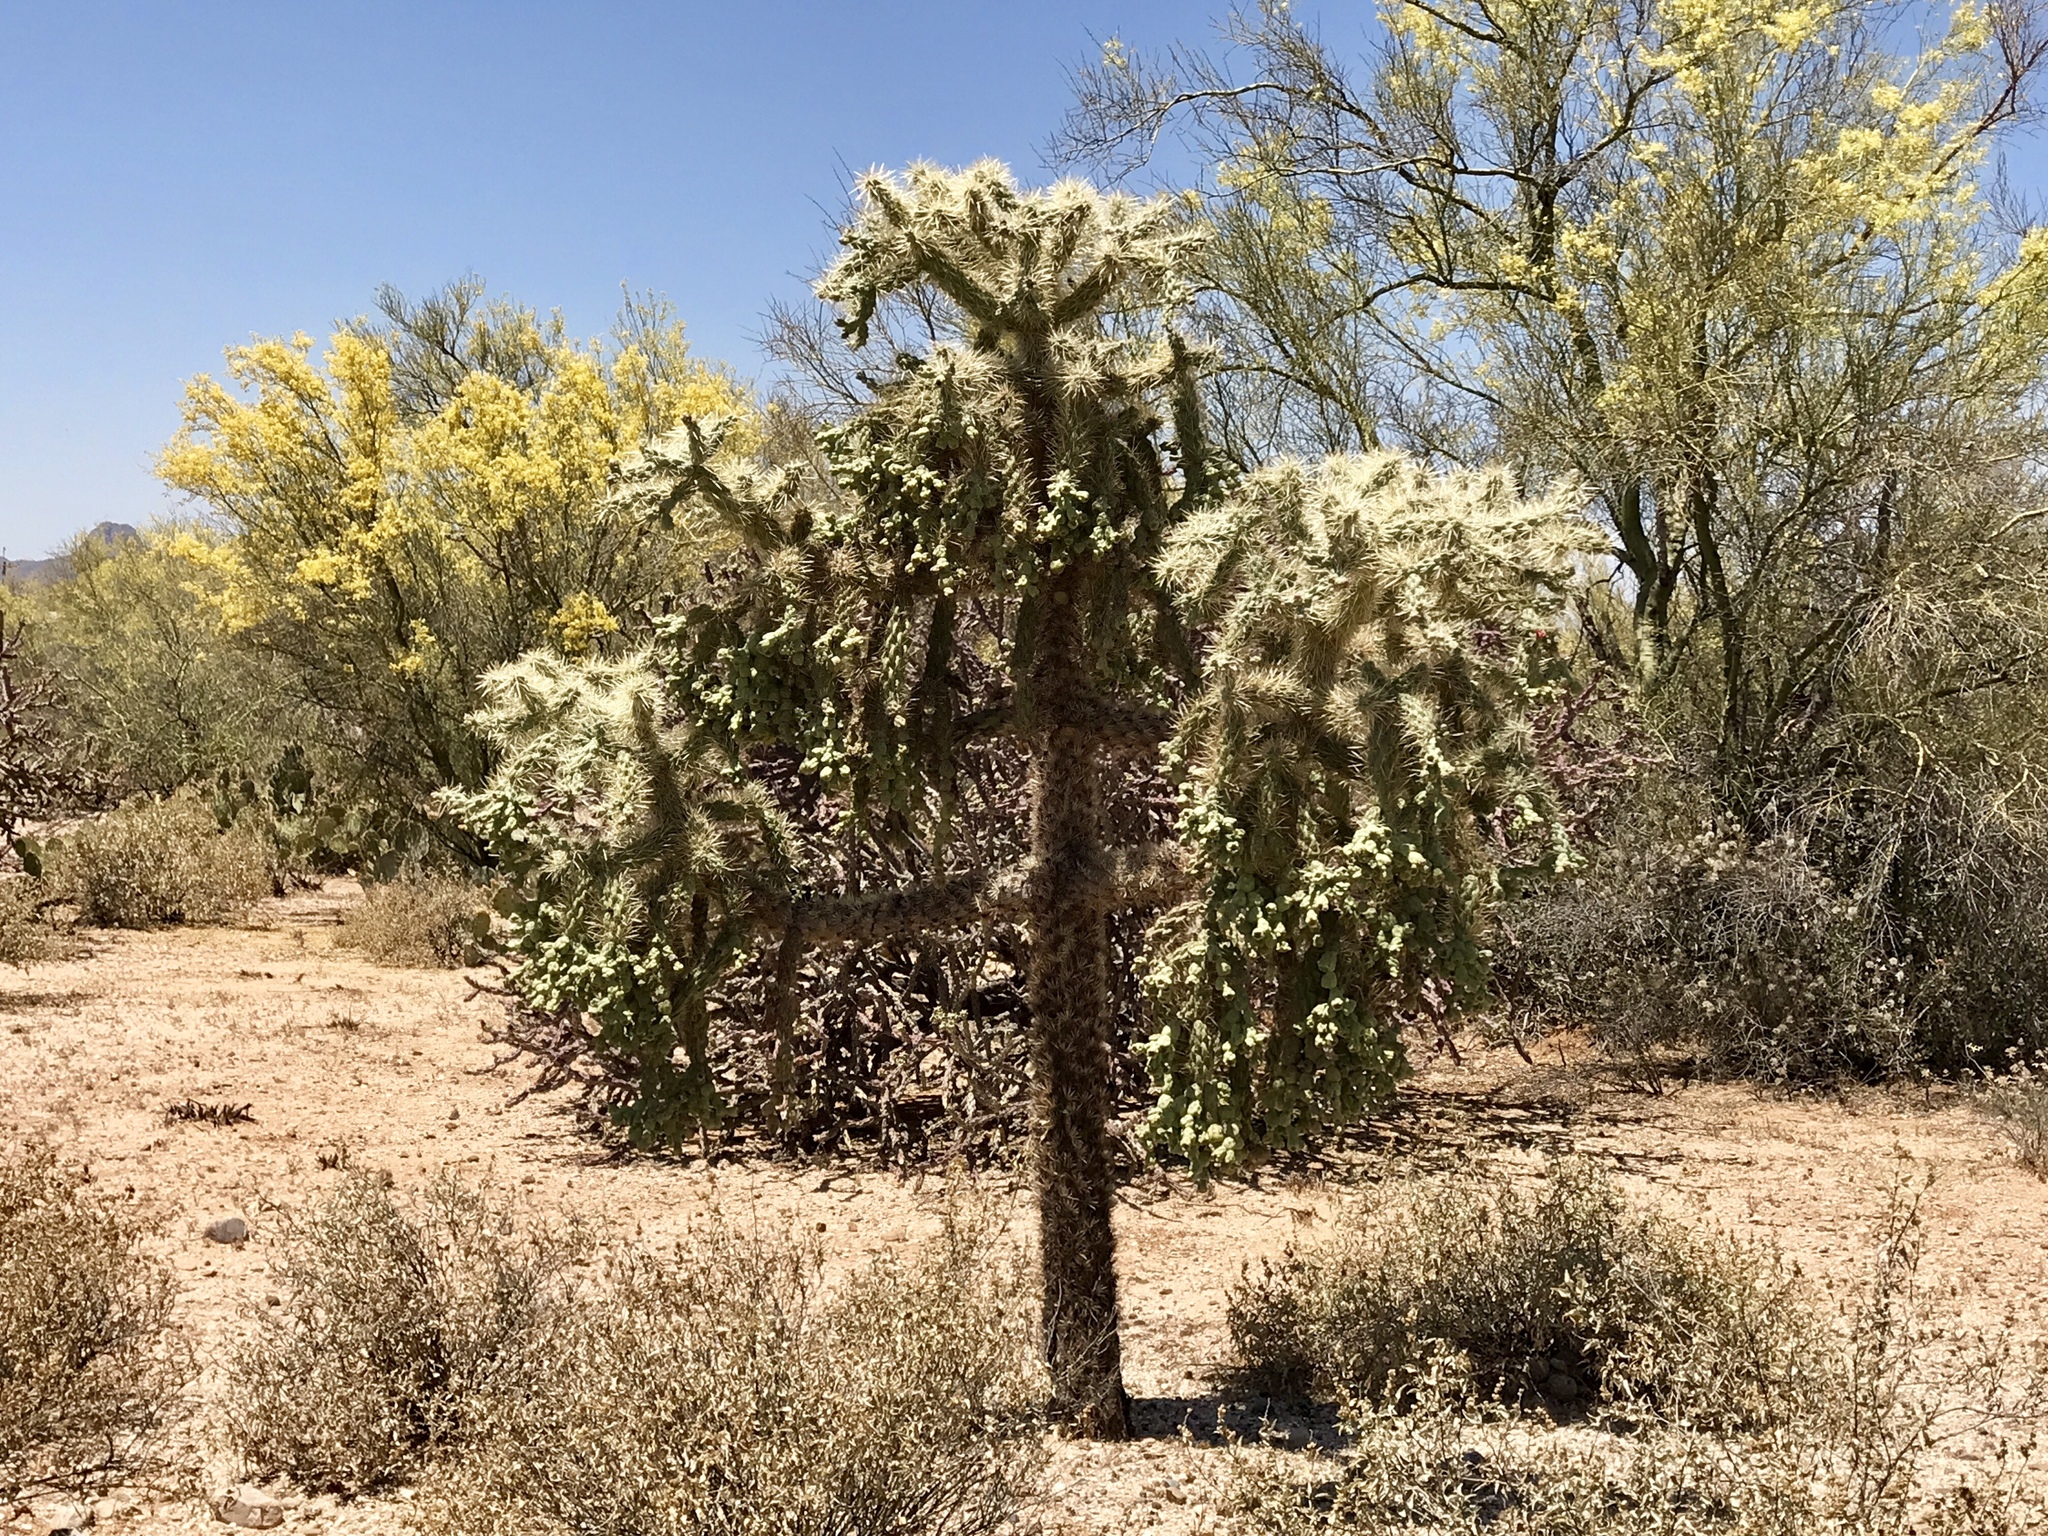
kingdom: Plantae
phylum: Tracheophyta
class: Magnoliopsida
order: Caryophyllales
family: Cactaceae
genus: Cylindropuntia
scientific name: Cylindropuntia fulgida
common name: Jumping cholla
